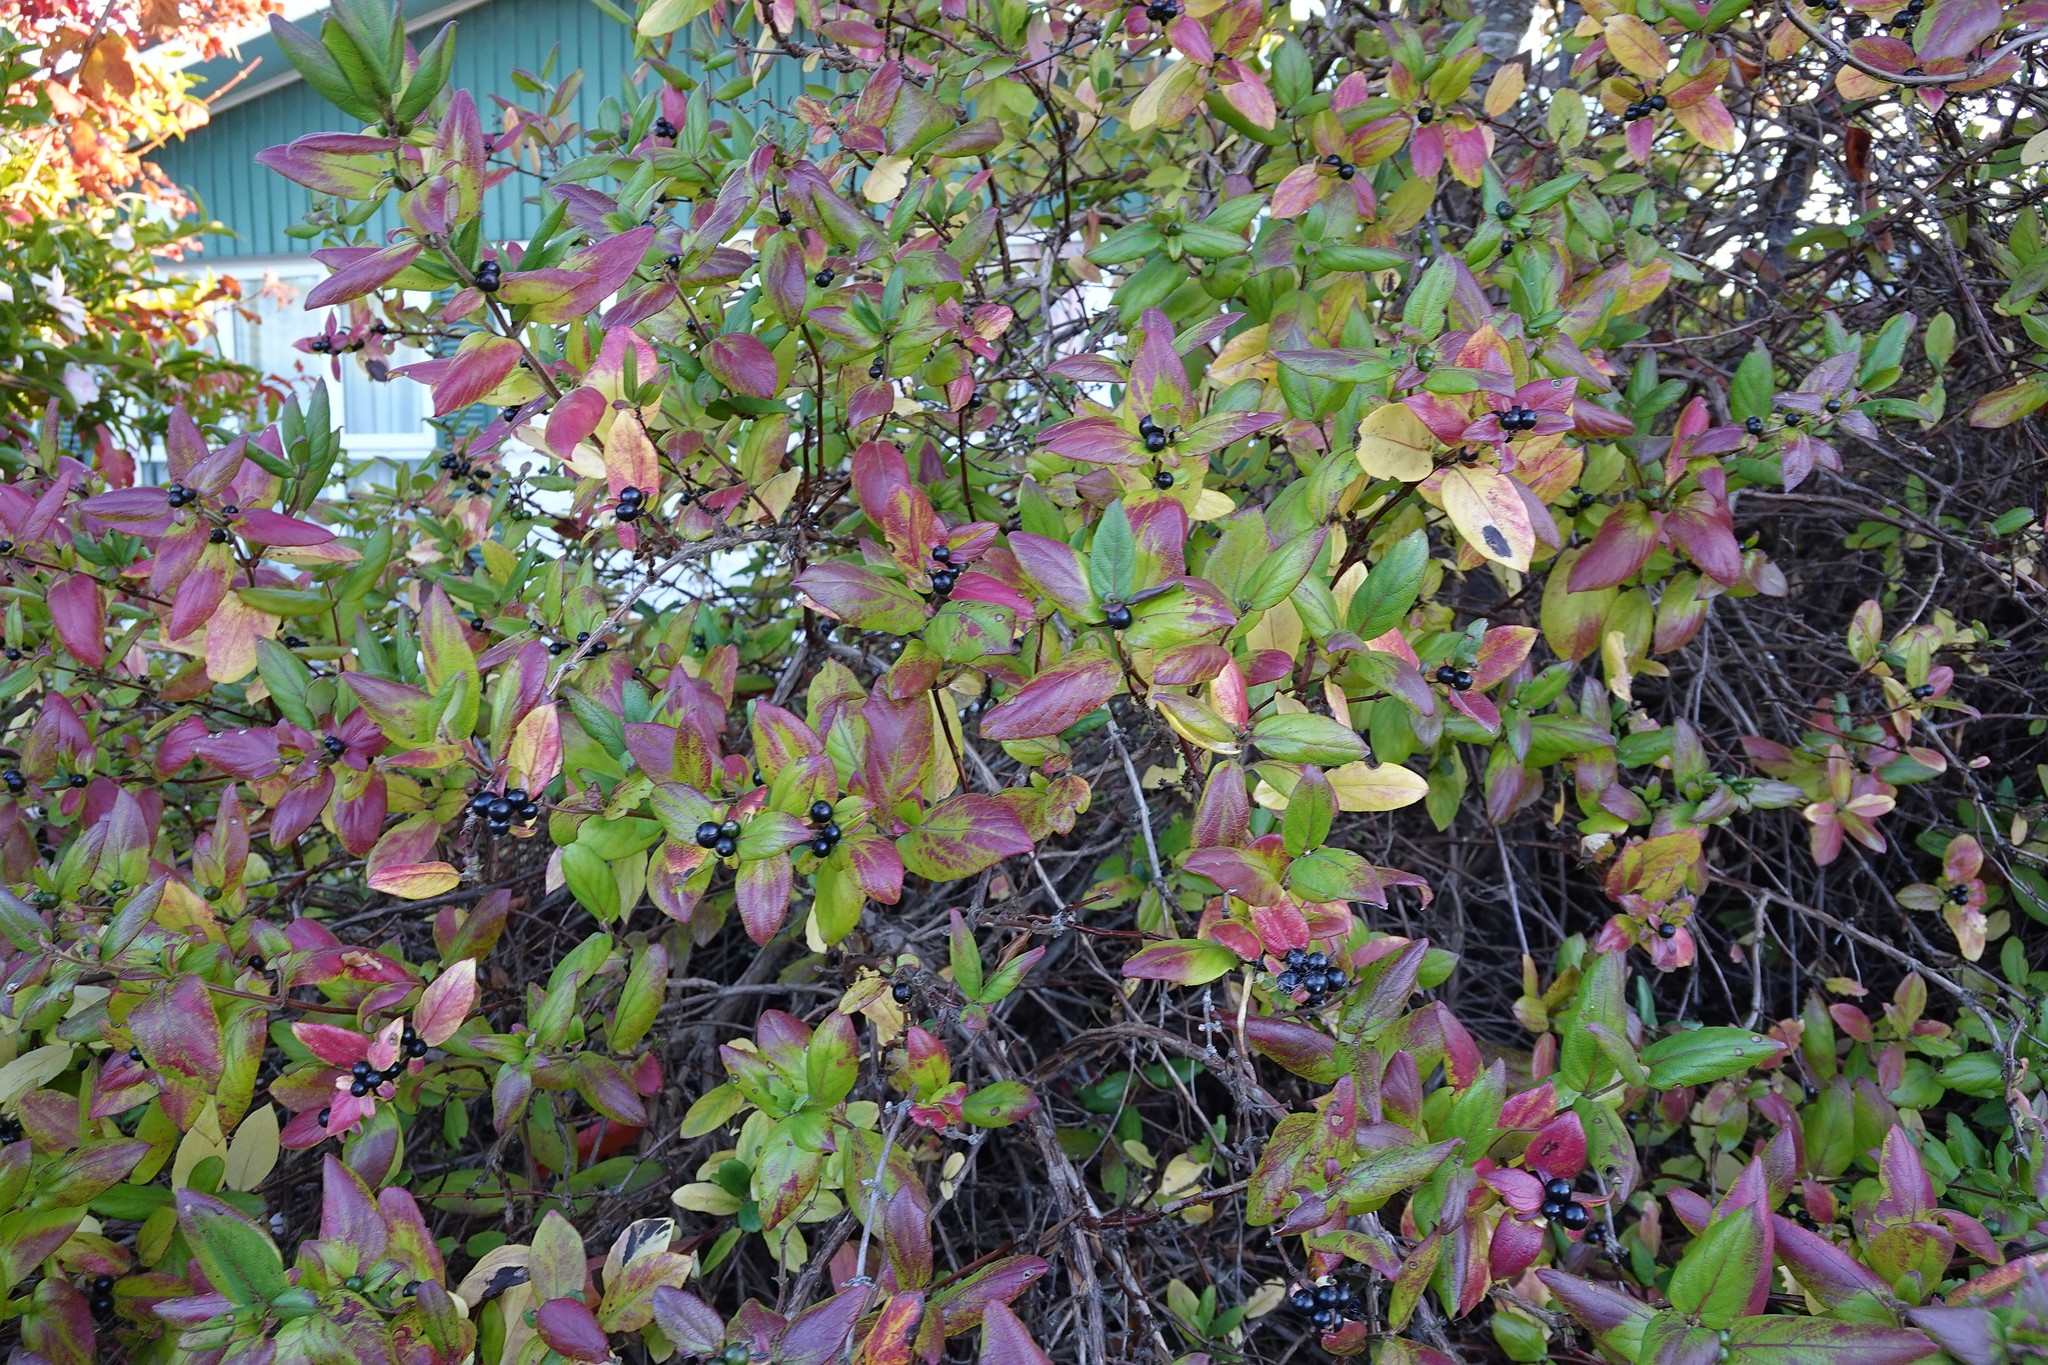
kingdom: Plantae
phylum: Tracheophyta
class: Magnoliopsida
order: Dipsacales
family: Caprifoliaceae
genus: Lonicera
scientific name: Lonicera japonica
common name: Japanese honeysuckle
